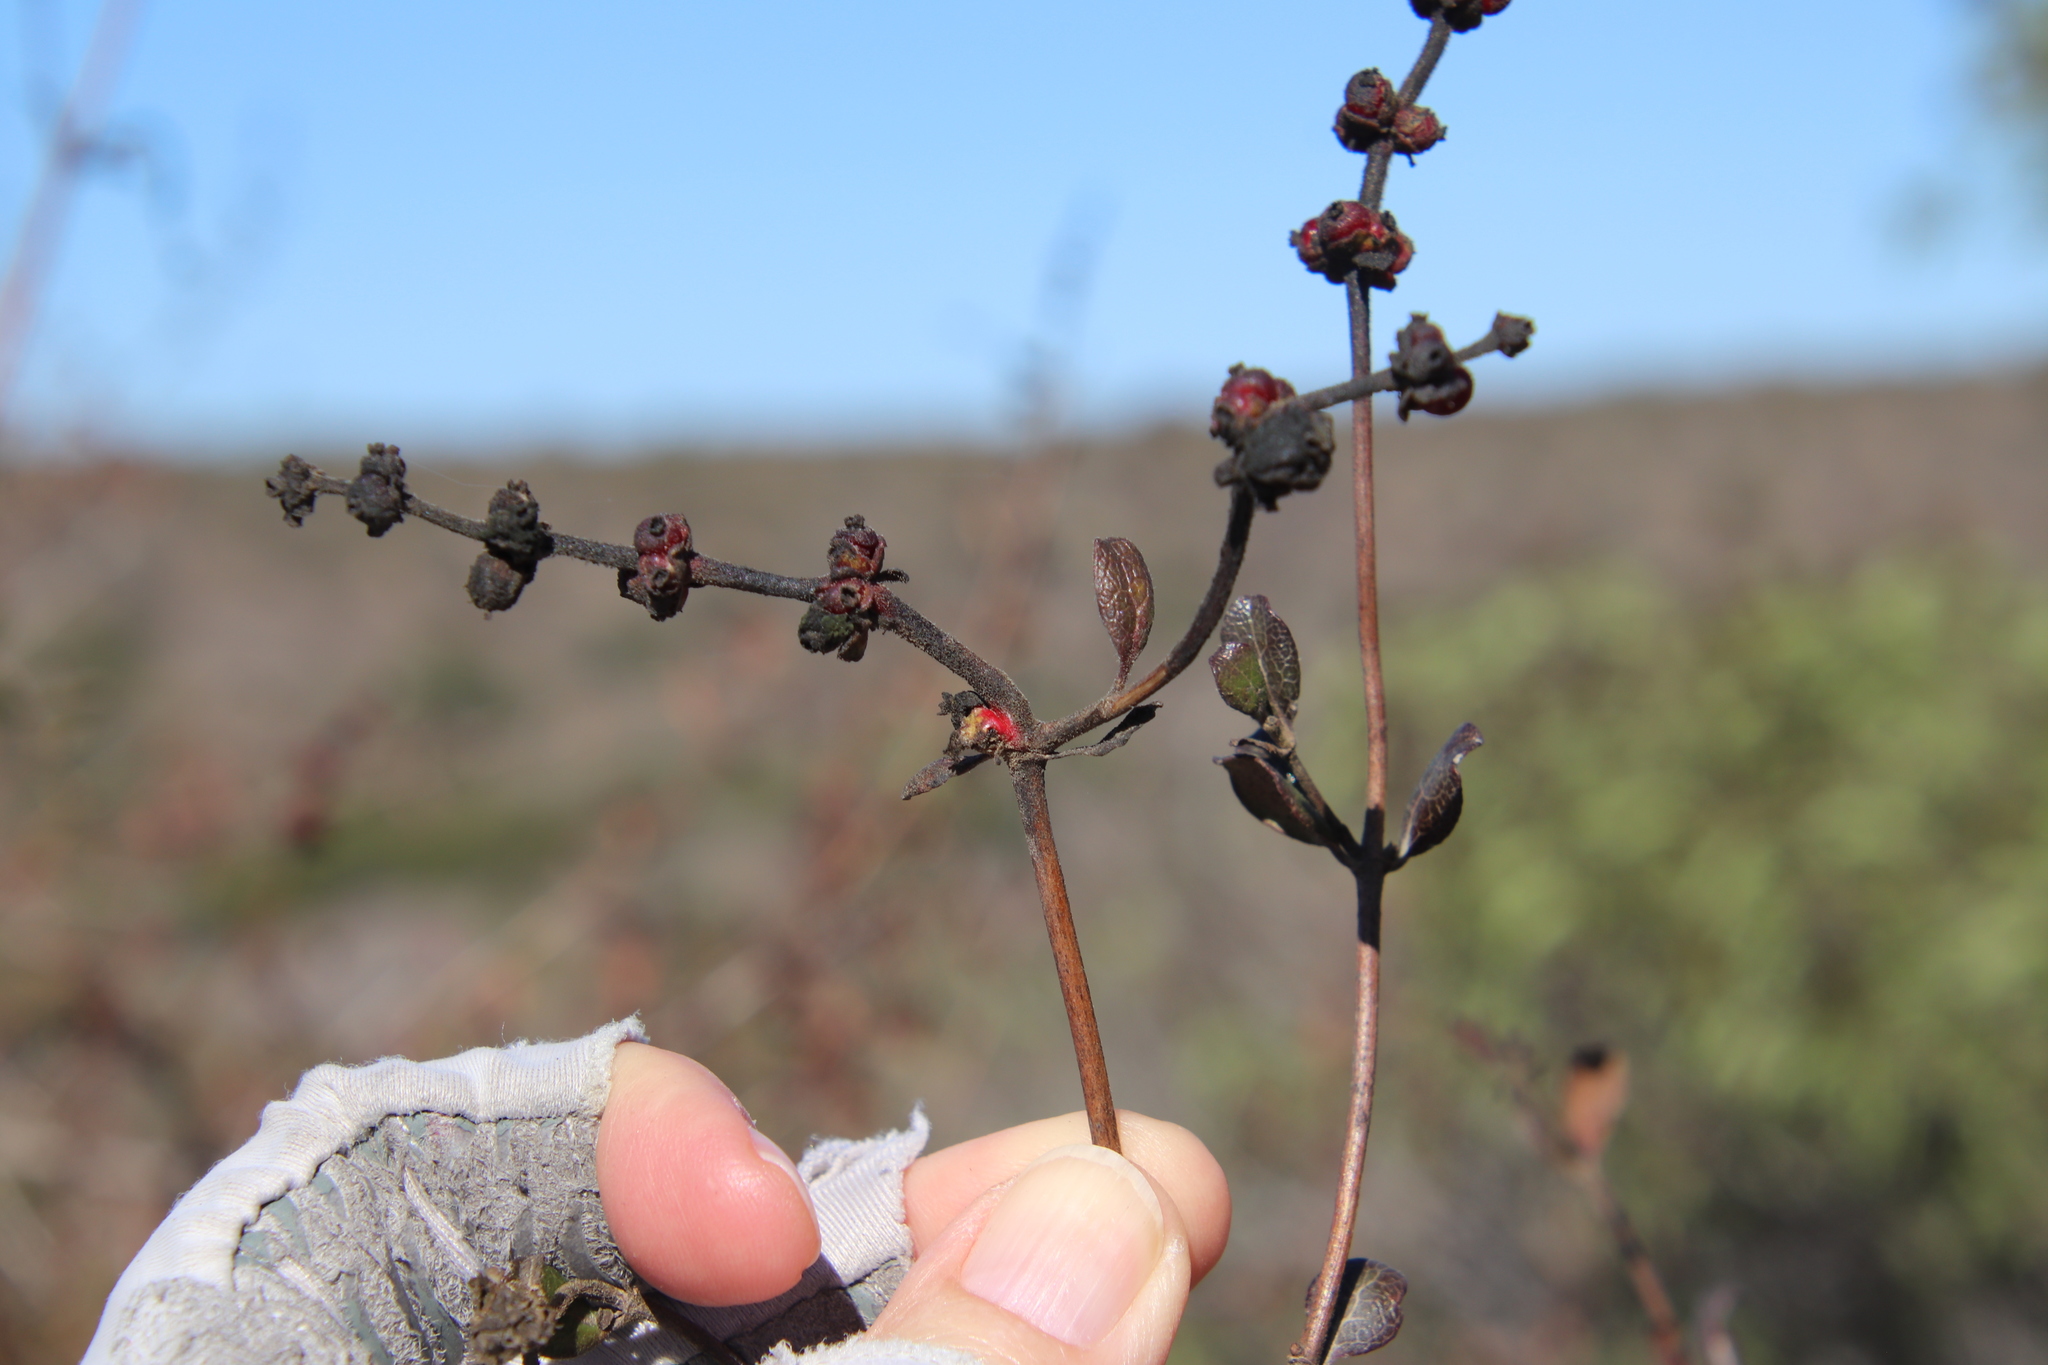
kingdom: Plantae
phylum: Tracheophyta
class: Magnoliopsida
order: Dipsacales
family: Caprifoliaceae
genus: Lonicera
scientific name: Lonicera subspicata
